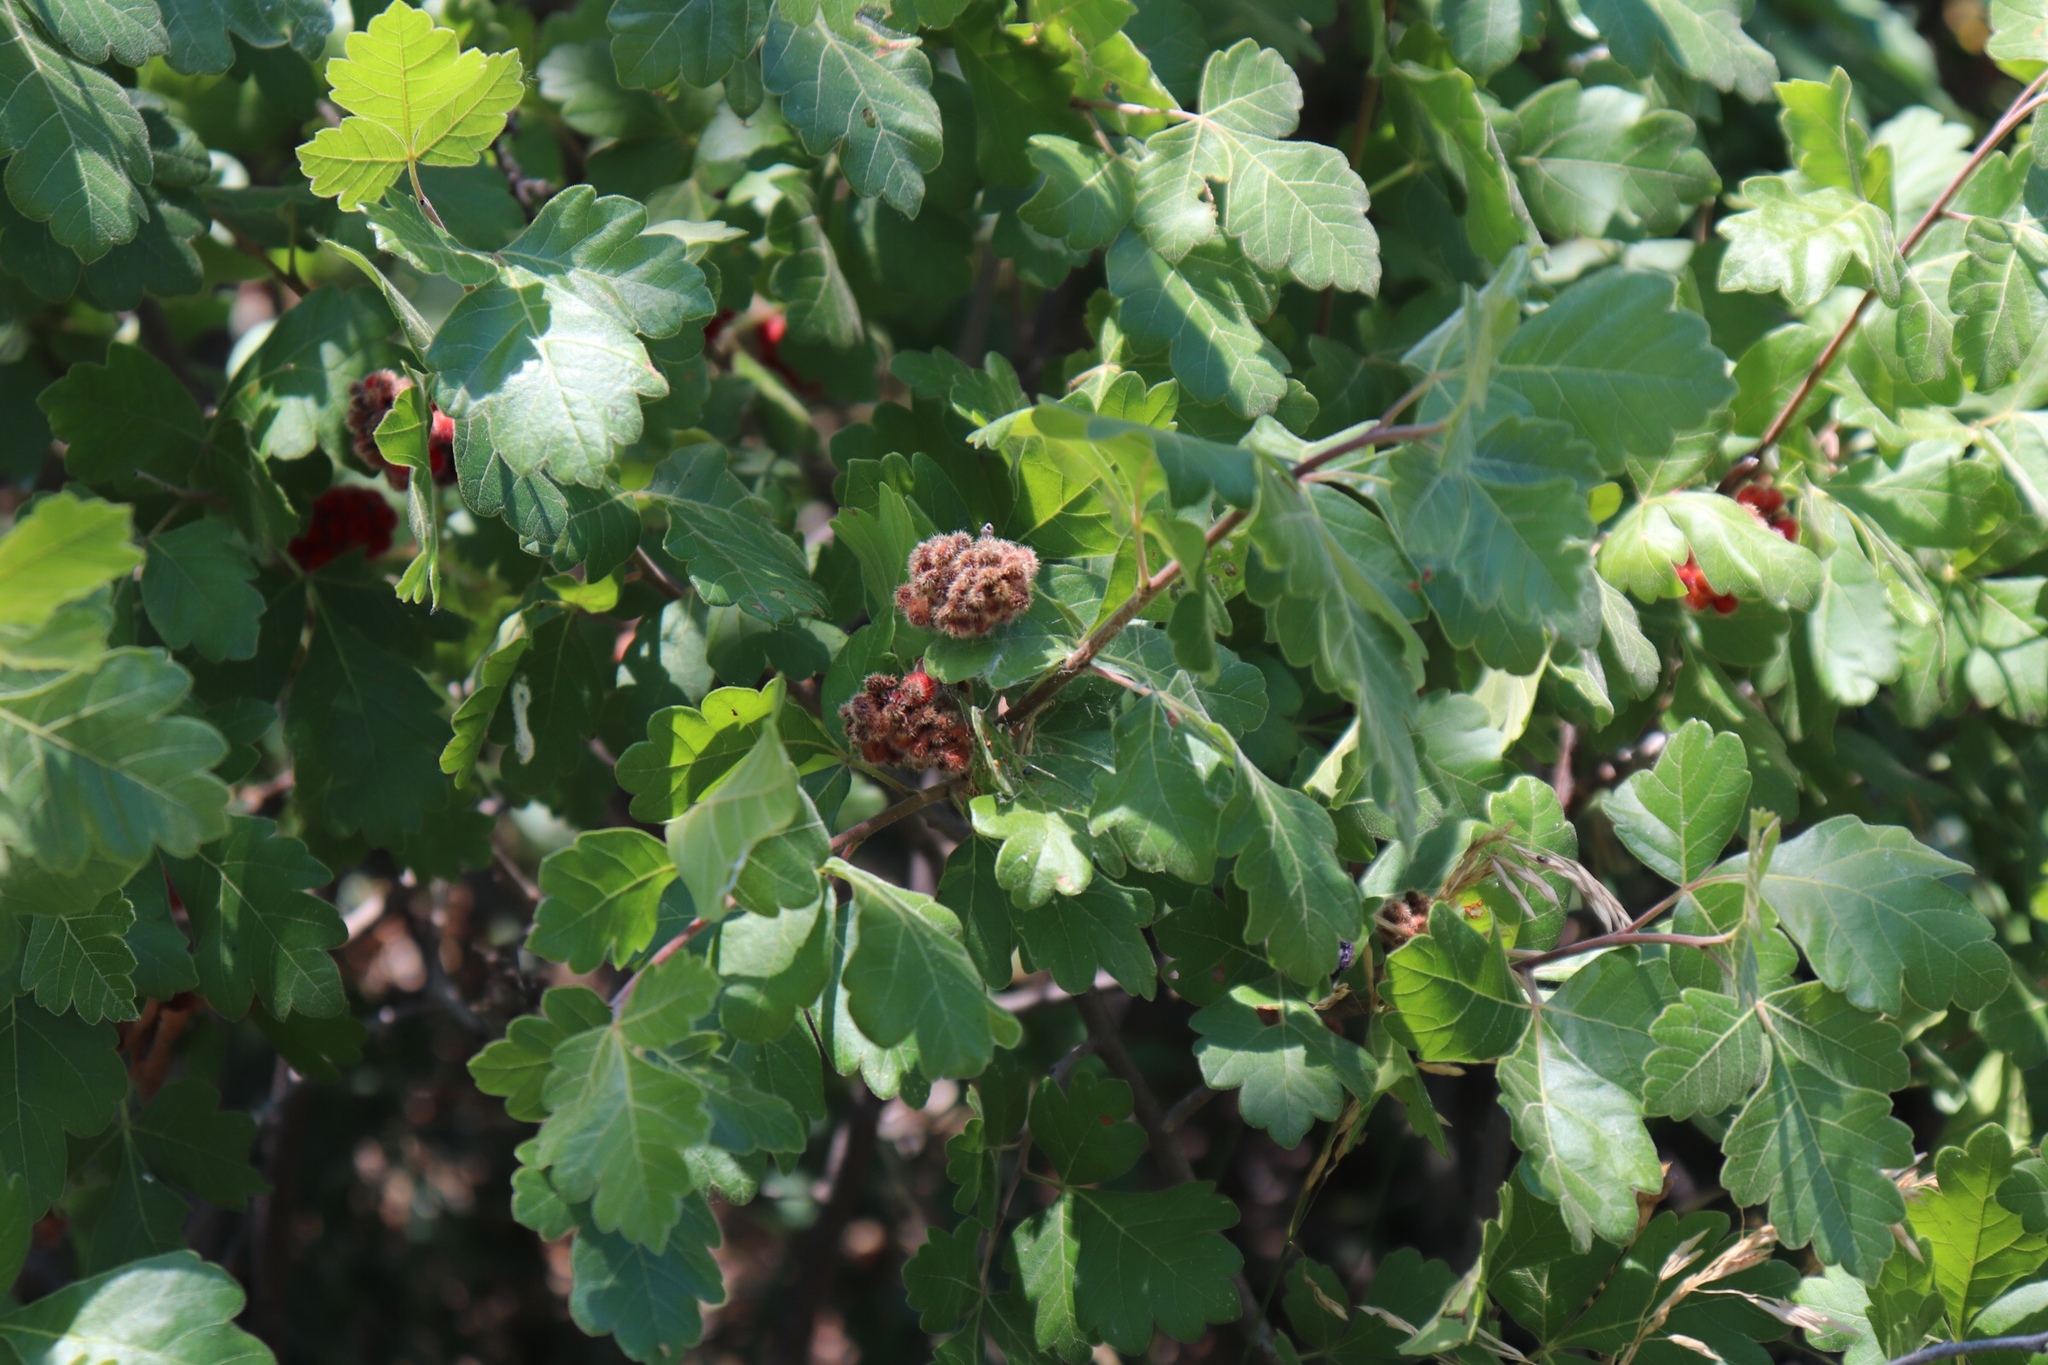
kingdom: Plantae
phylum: Tracheophyta
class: Magnoliopsida
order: Sapindales
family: Anacardiaceae
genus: Rhus
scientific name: Rhus aromatica
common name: Aromatic sumac
